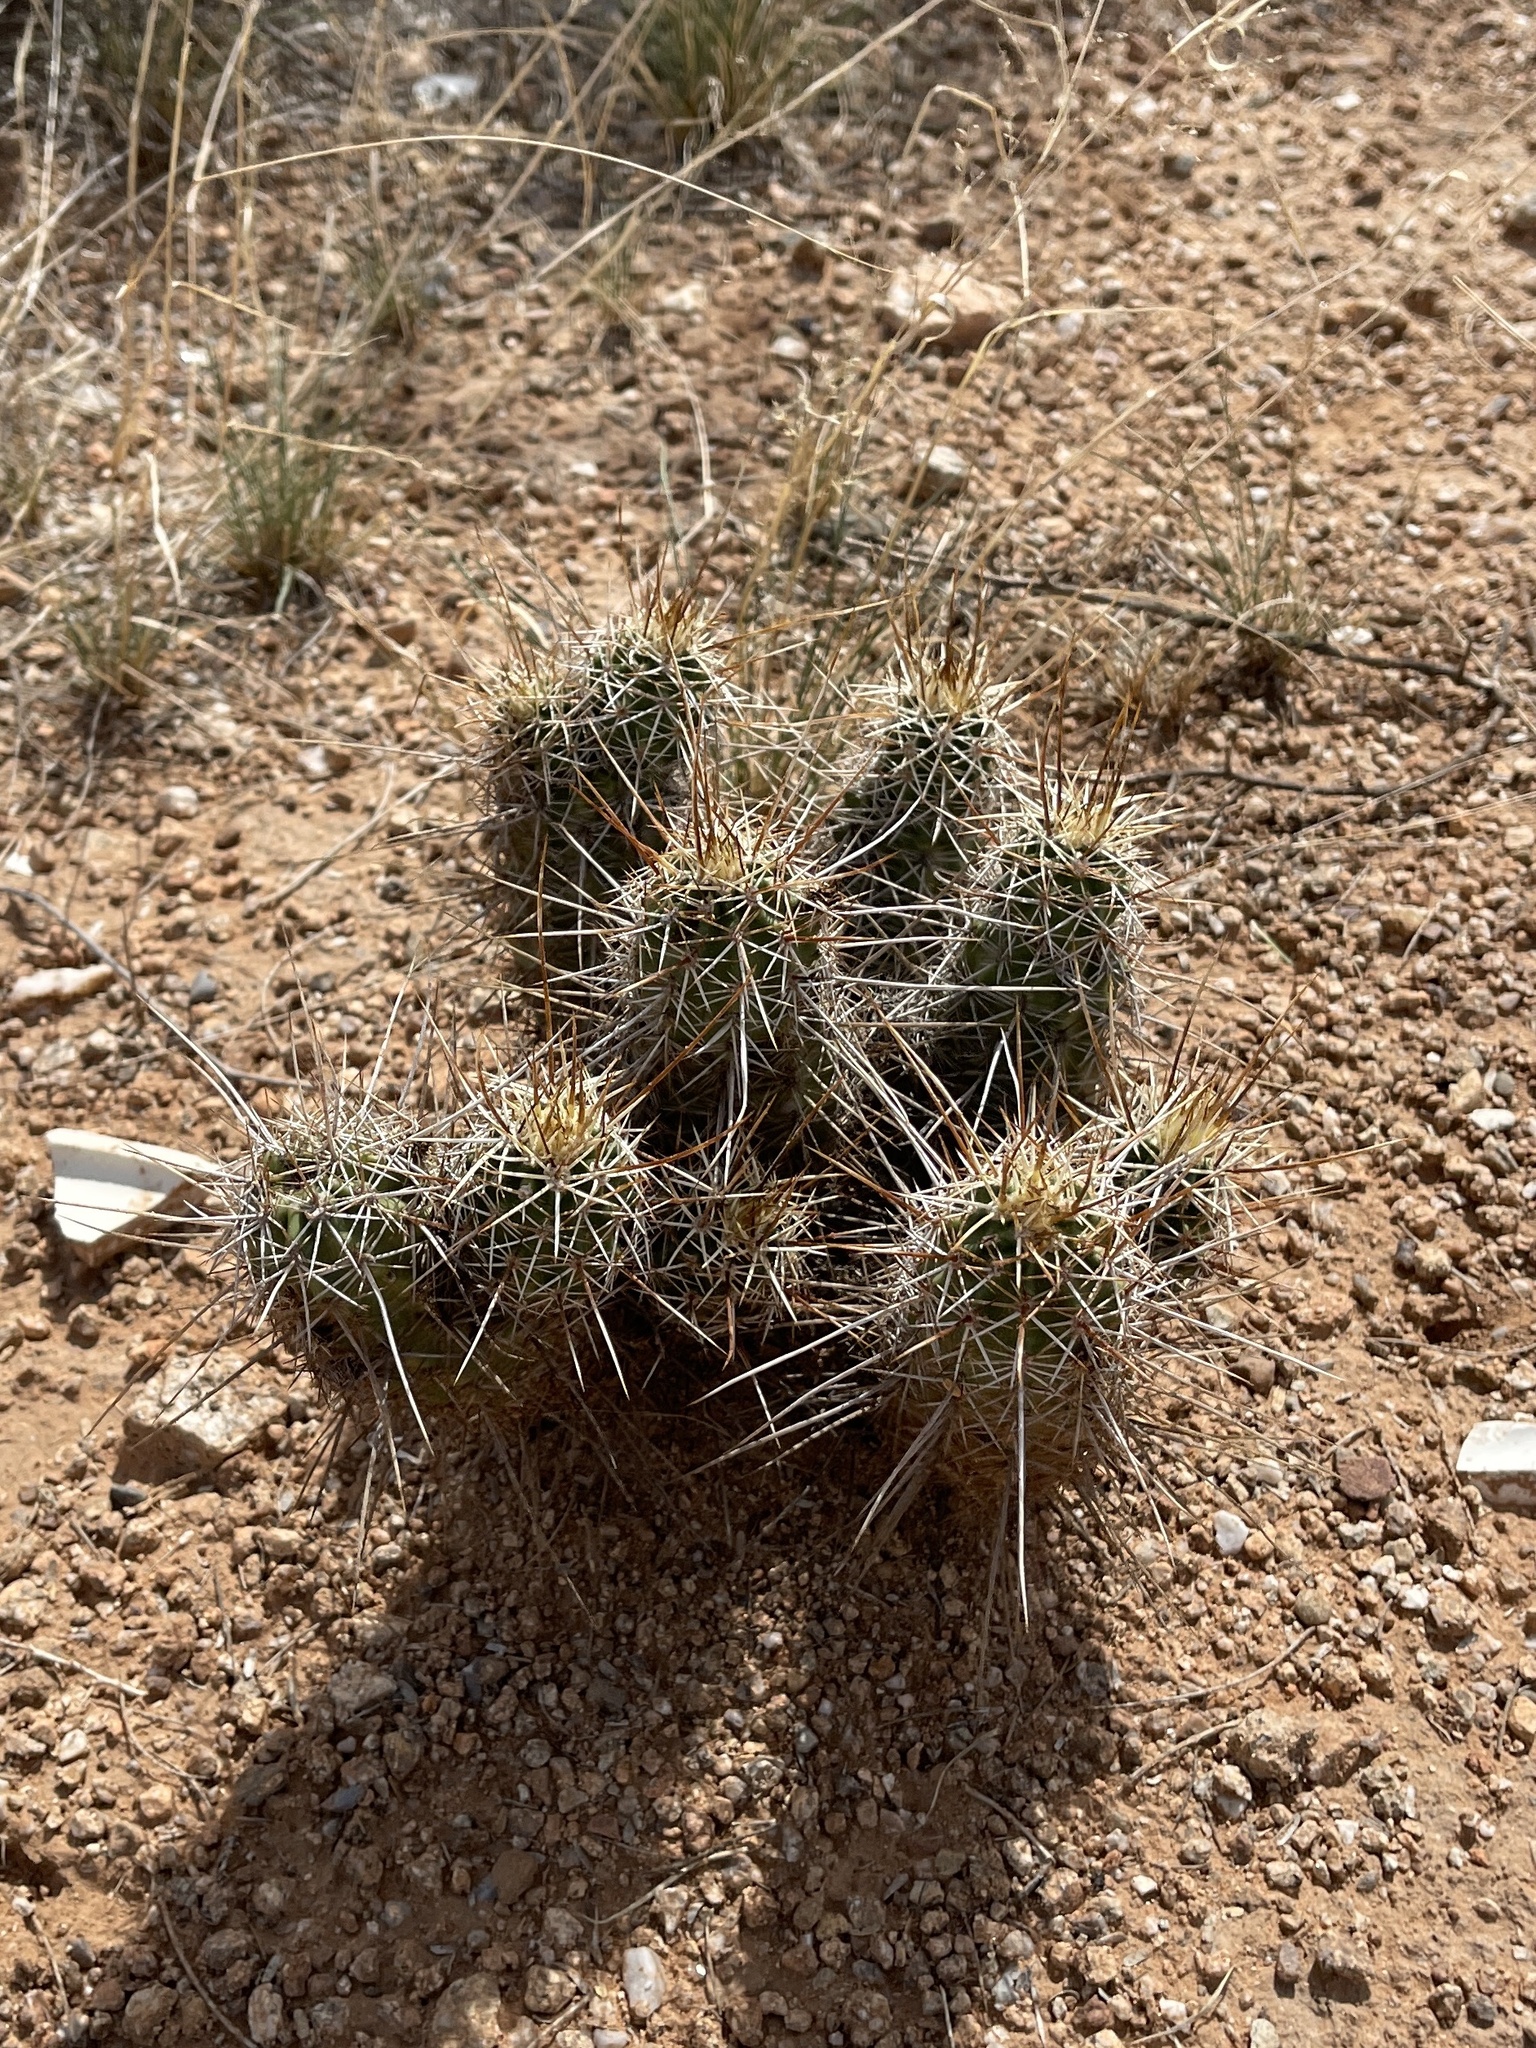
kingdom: Plantae
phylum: Tracheophyta
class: Magnoliopsida
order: Caryophyllales
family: Cactaceae
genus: Echinocereus
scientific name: Echinocereus fasciculatus
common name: Bundle hedgehog
